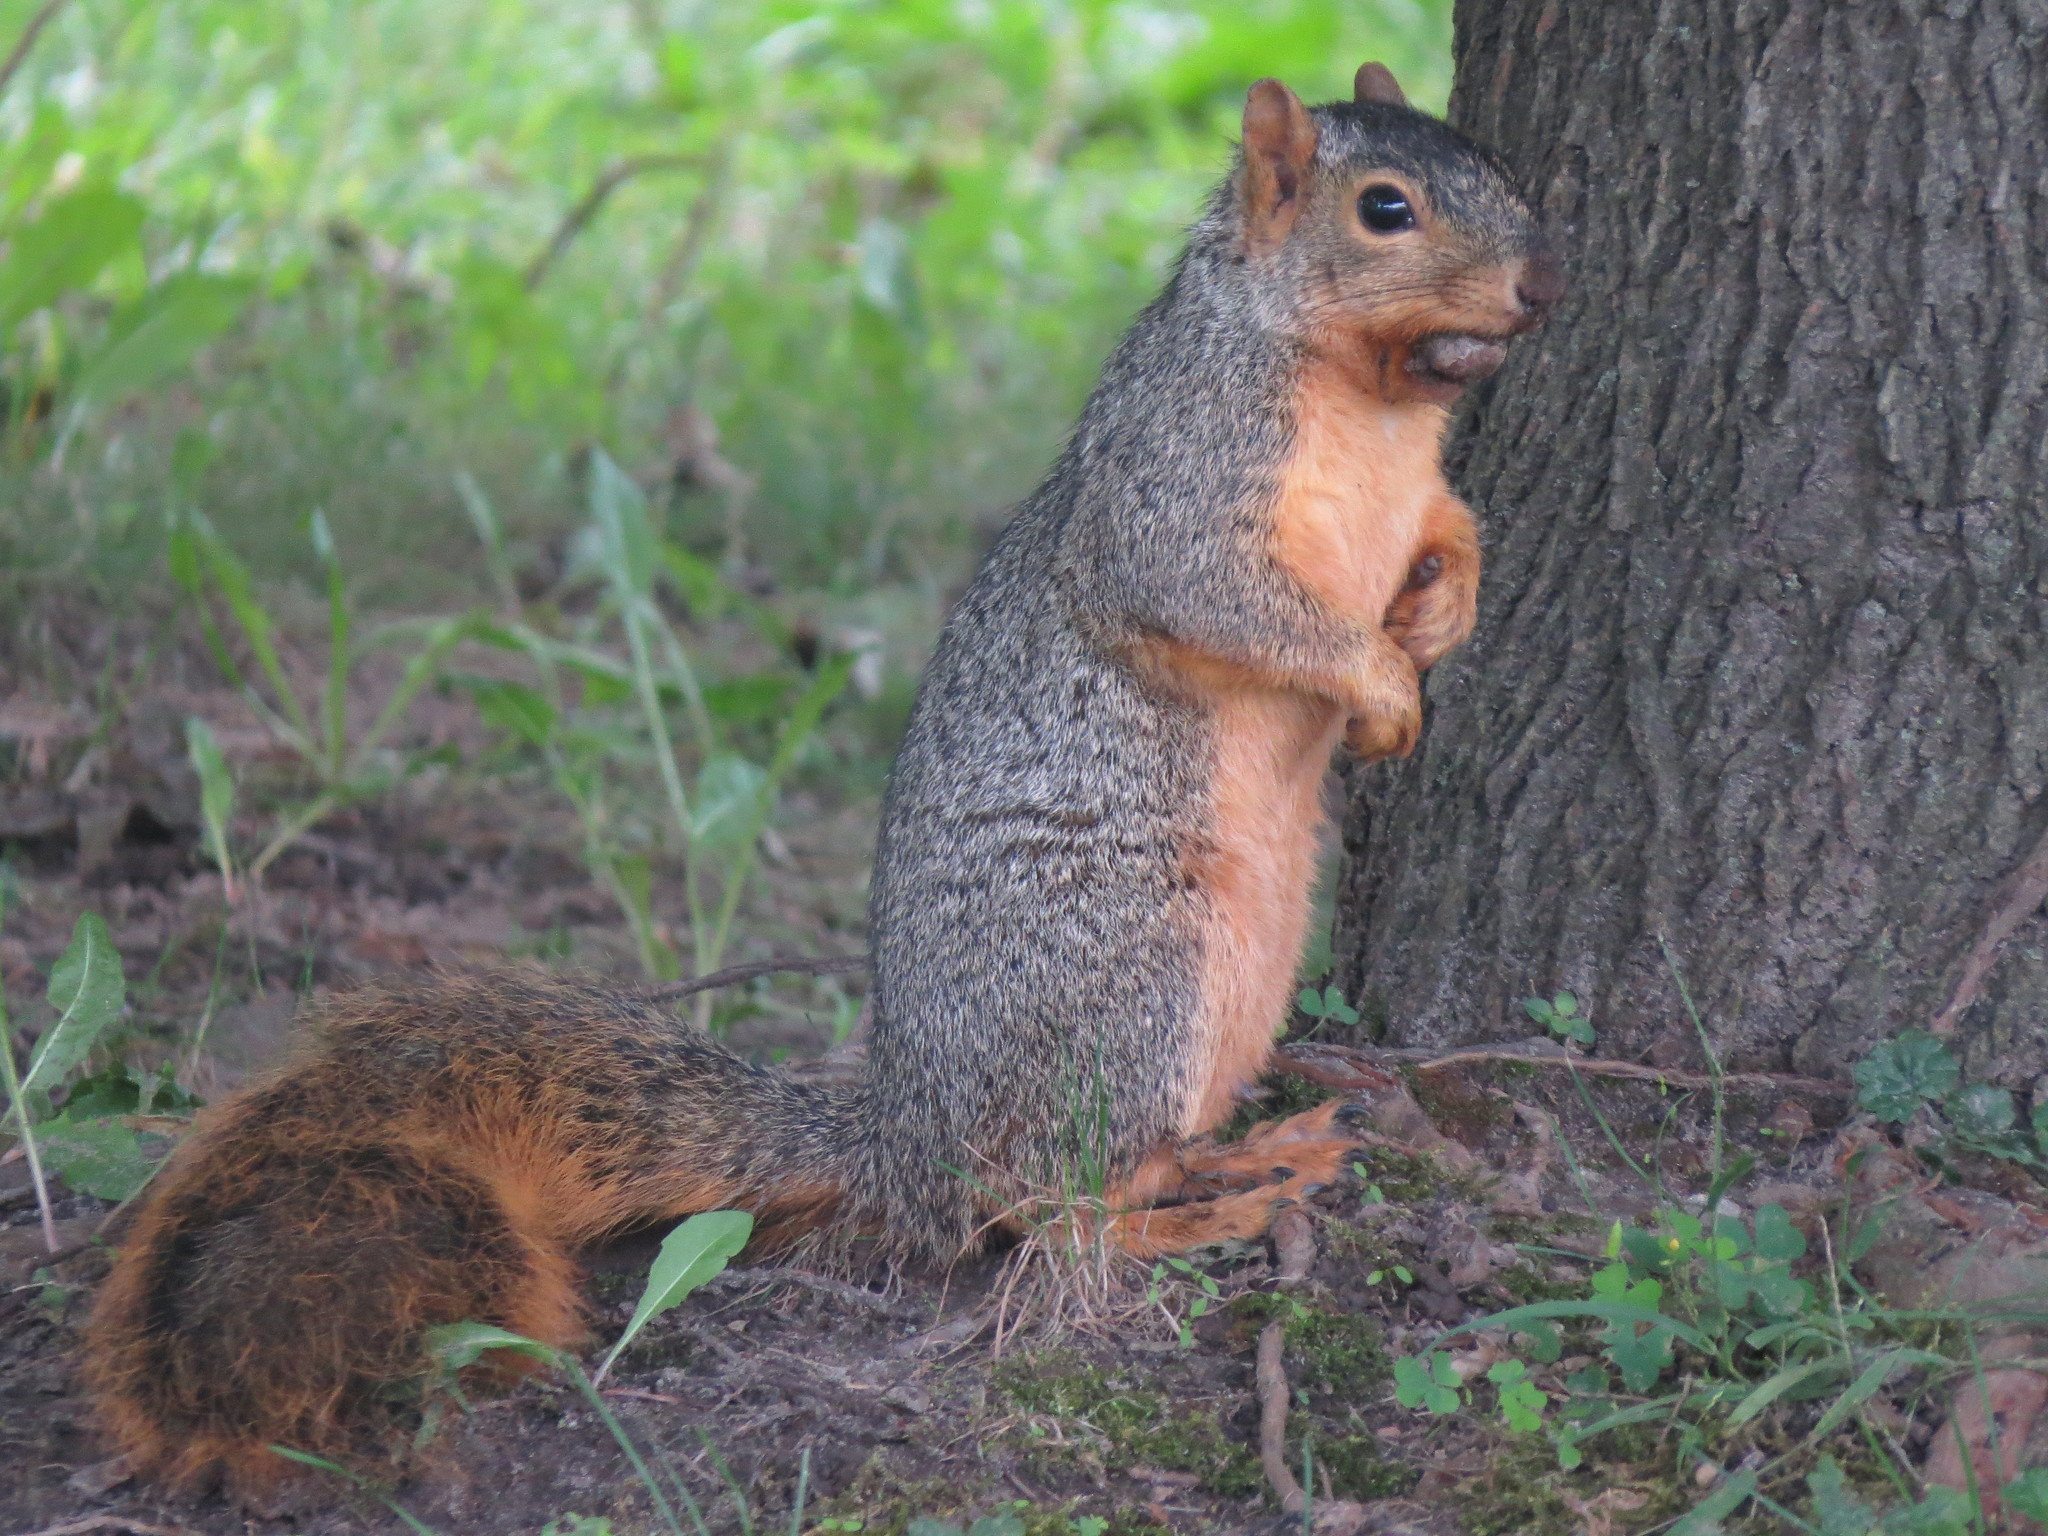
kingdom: Animalia
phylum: Chordata
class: Mammalia
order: Rodentia
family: Sciuridae
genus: Sciurus
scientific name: Sciurus niger
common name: Fox squirrel
